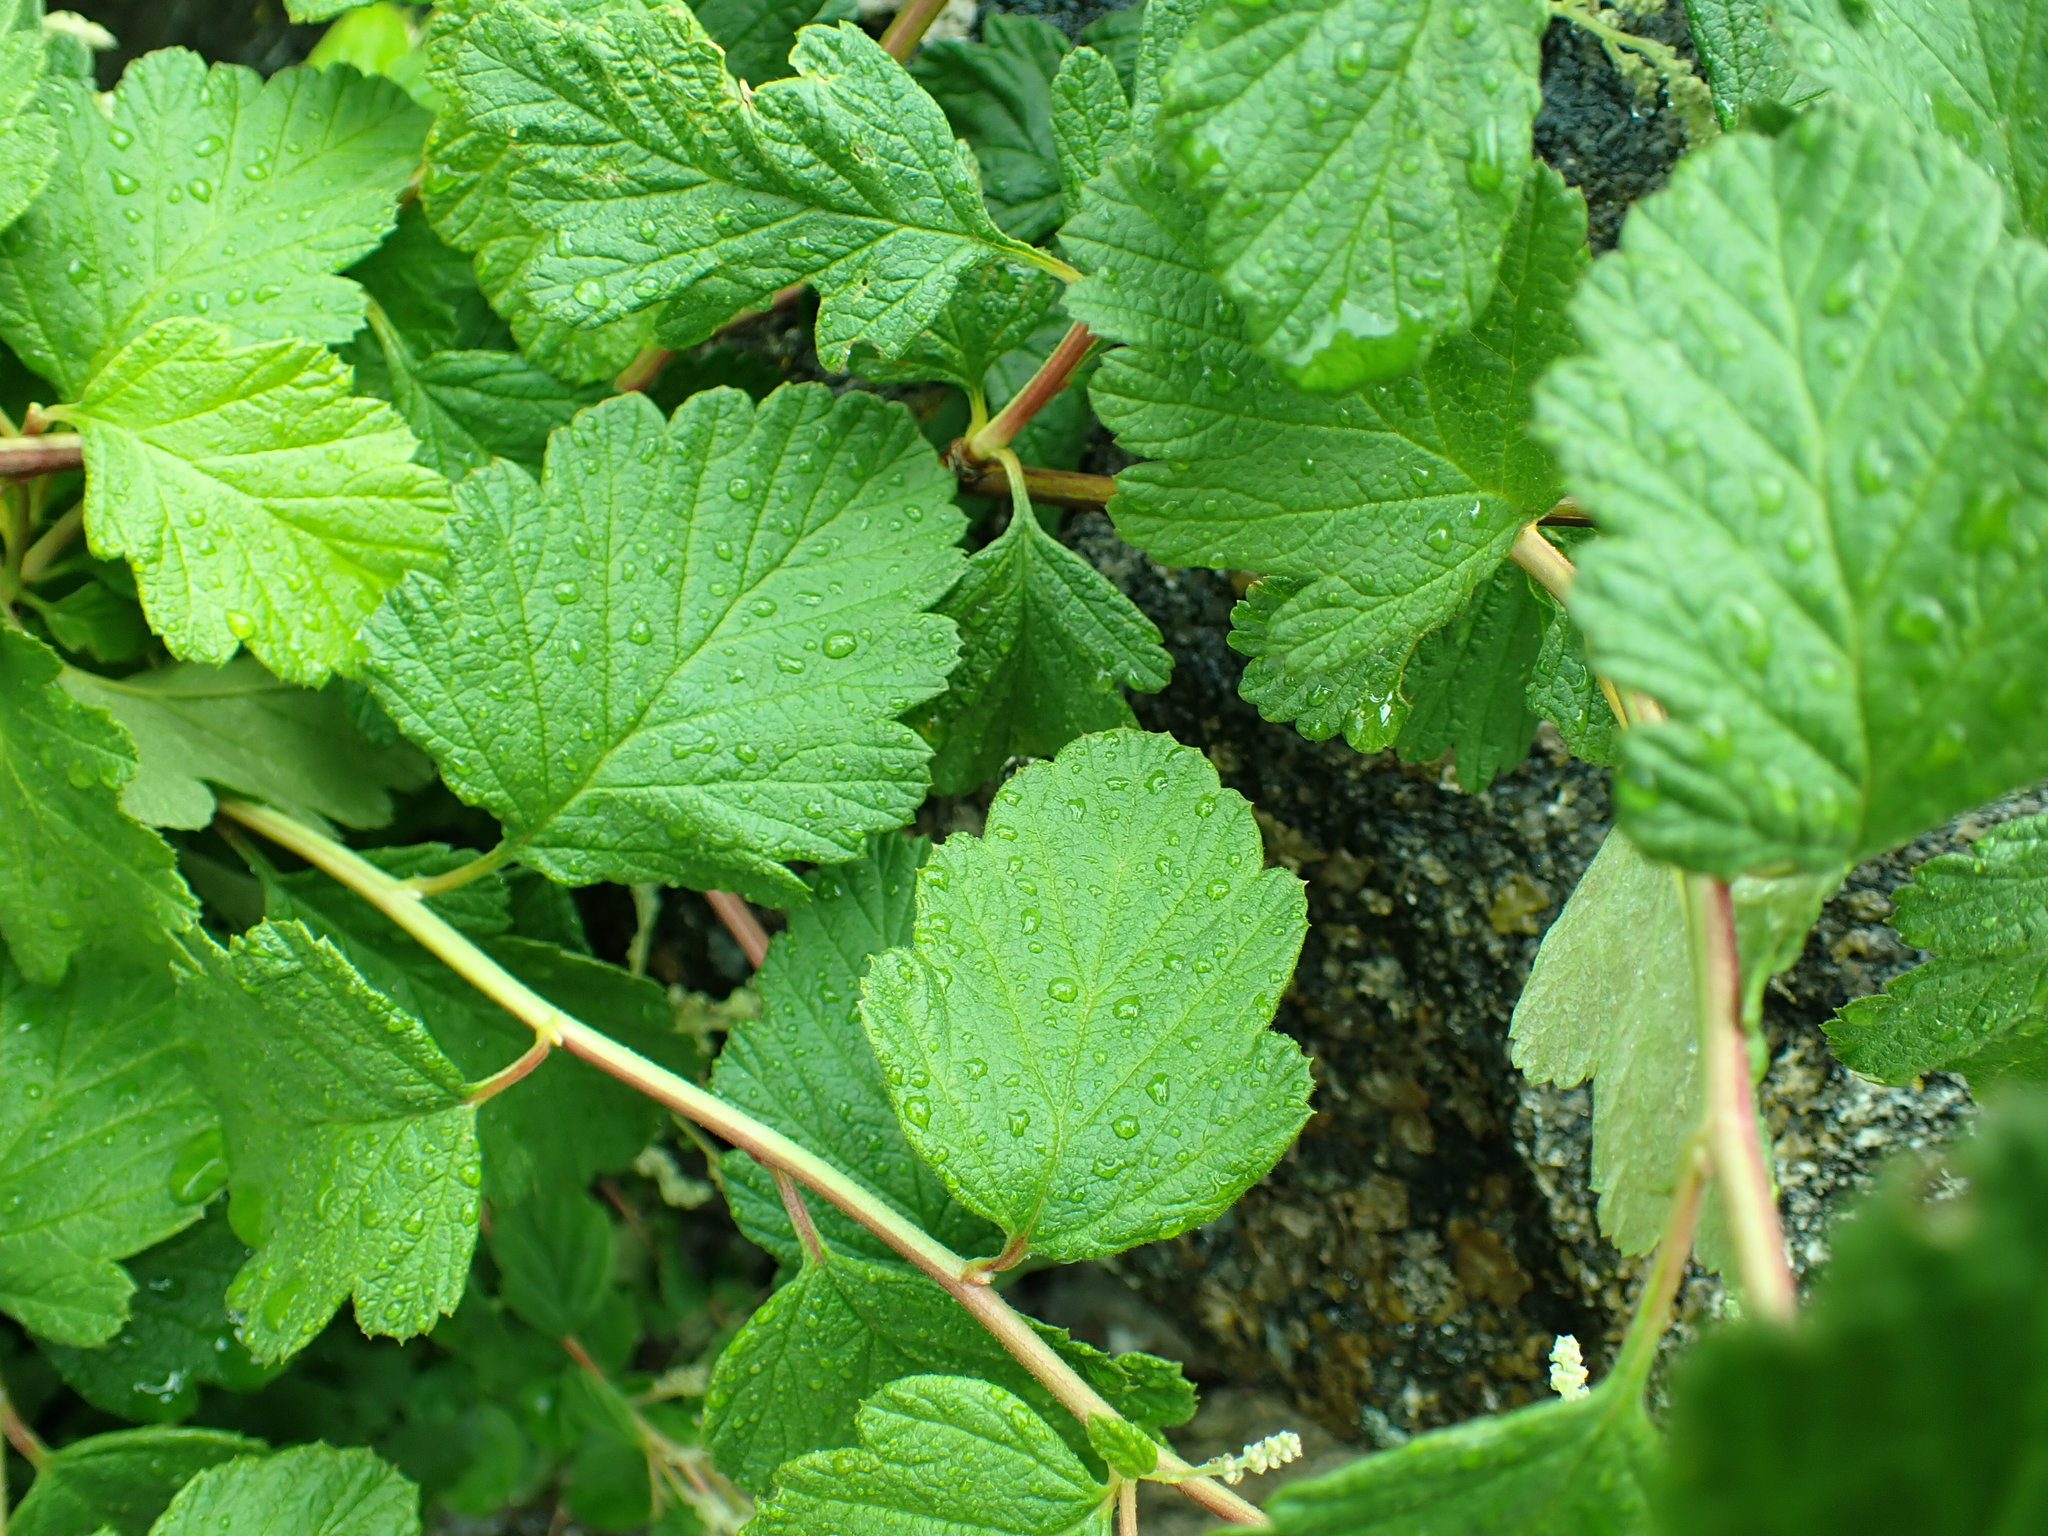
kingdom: Plantae
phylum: Tracheophyta
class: Magnoliopsida
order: Rosales
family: Rosaceae
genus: Holodiscus
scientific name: Holodiscus discolor
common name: Oceanspray
